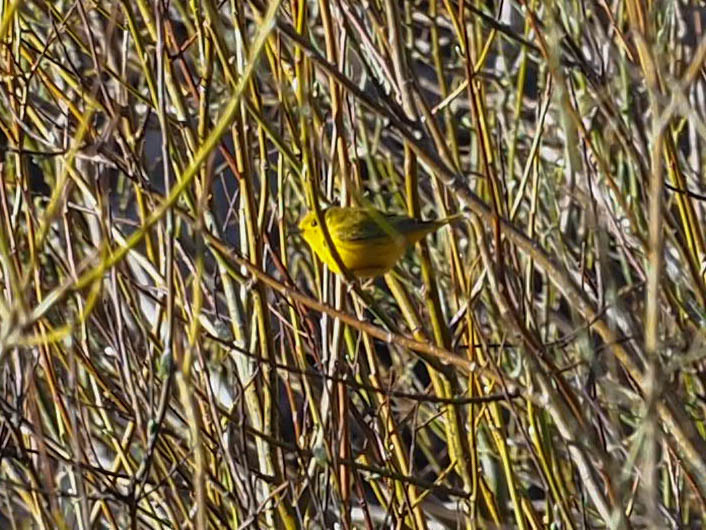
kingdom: Animalia
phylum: Chordata
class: Aves
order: Passeriformes
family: Parulidae
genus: Setophaga
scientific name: Setophaga petechia
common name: Yellow warbler
